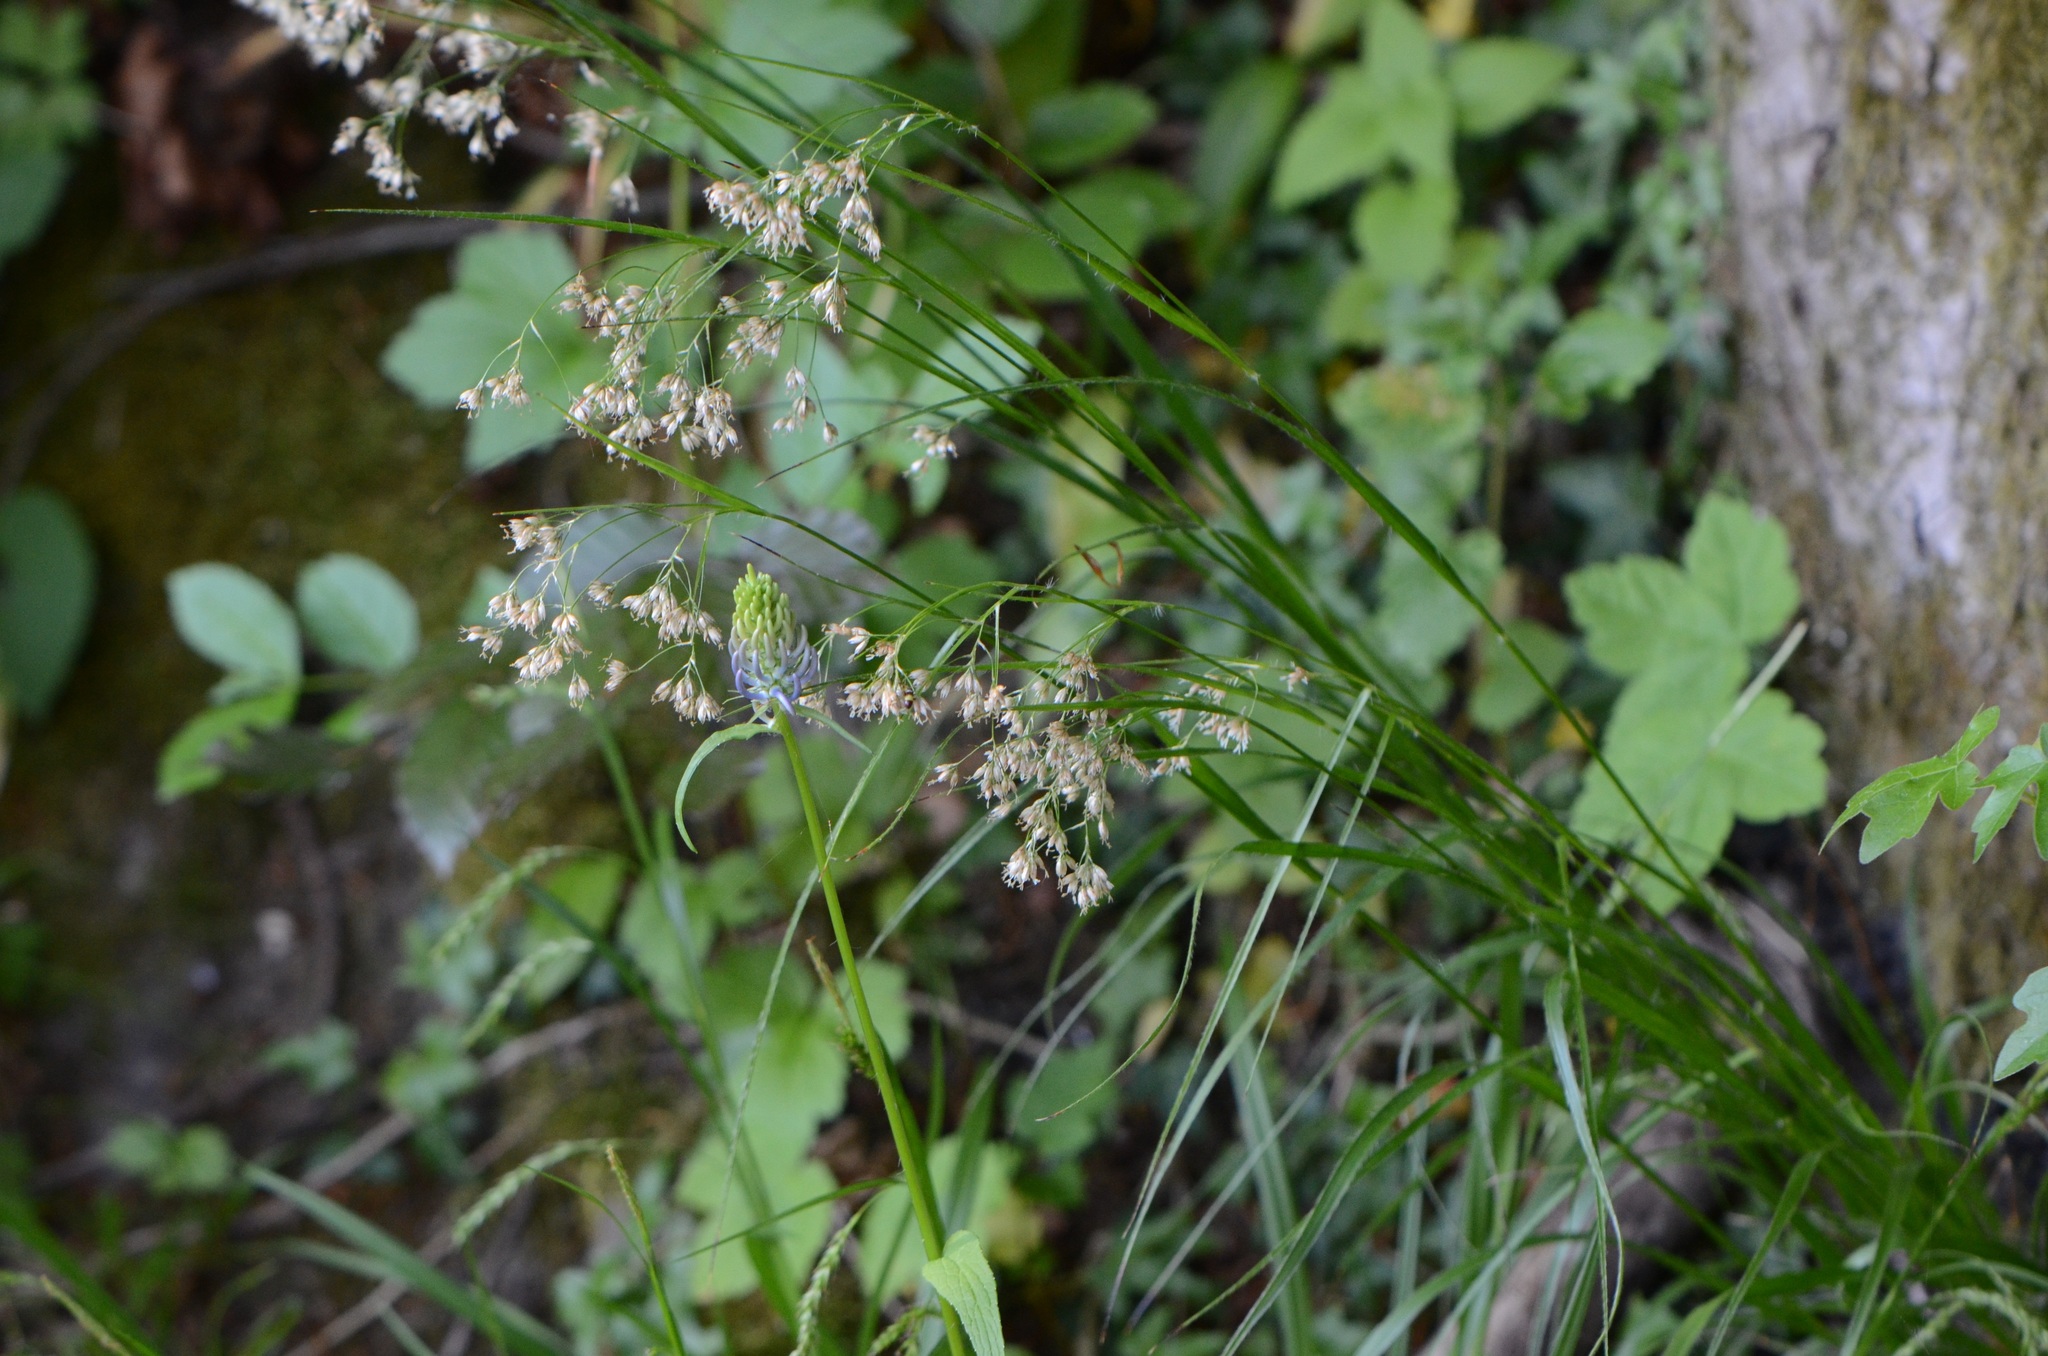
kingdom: Plantae
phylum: Tracheophyta
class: Magnoliopsida
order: Asterales
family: Campanulaceae
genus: Phyteuma
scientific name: Phyteuma spicatum
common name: Spiked rampion
